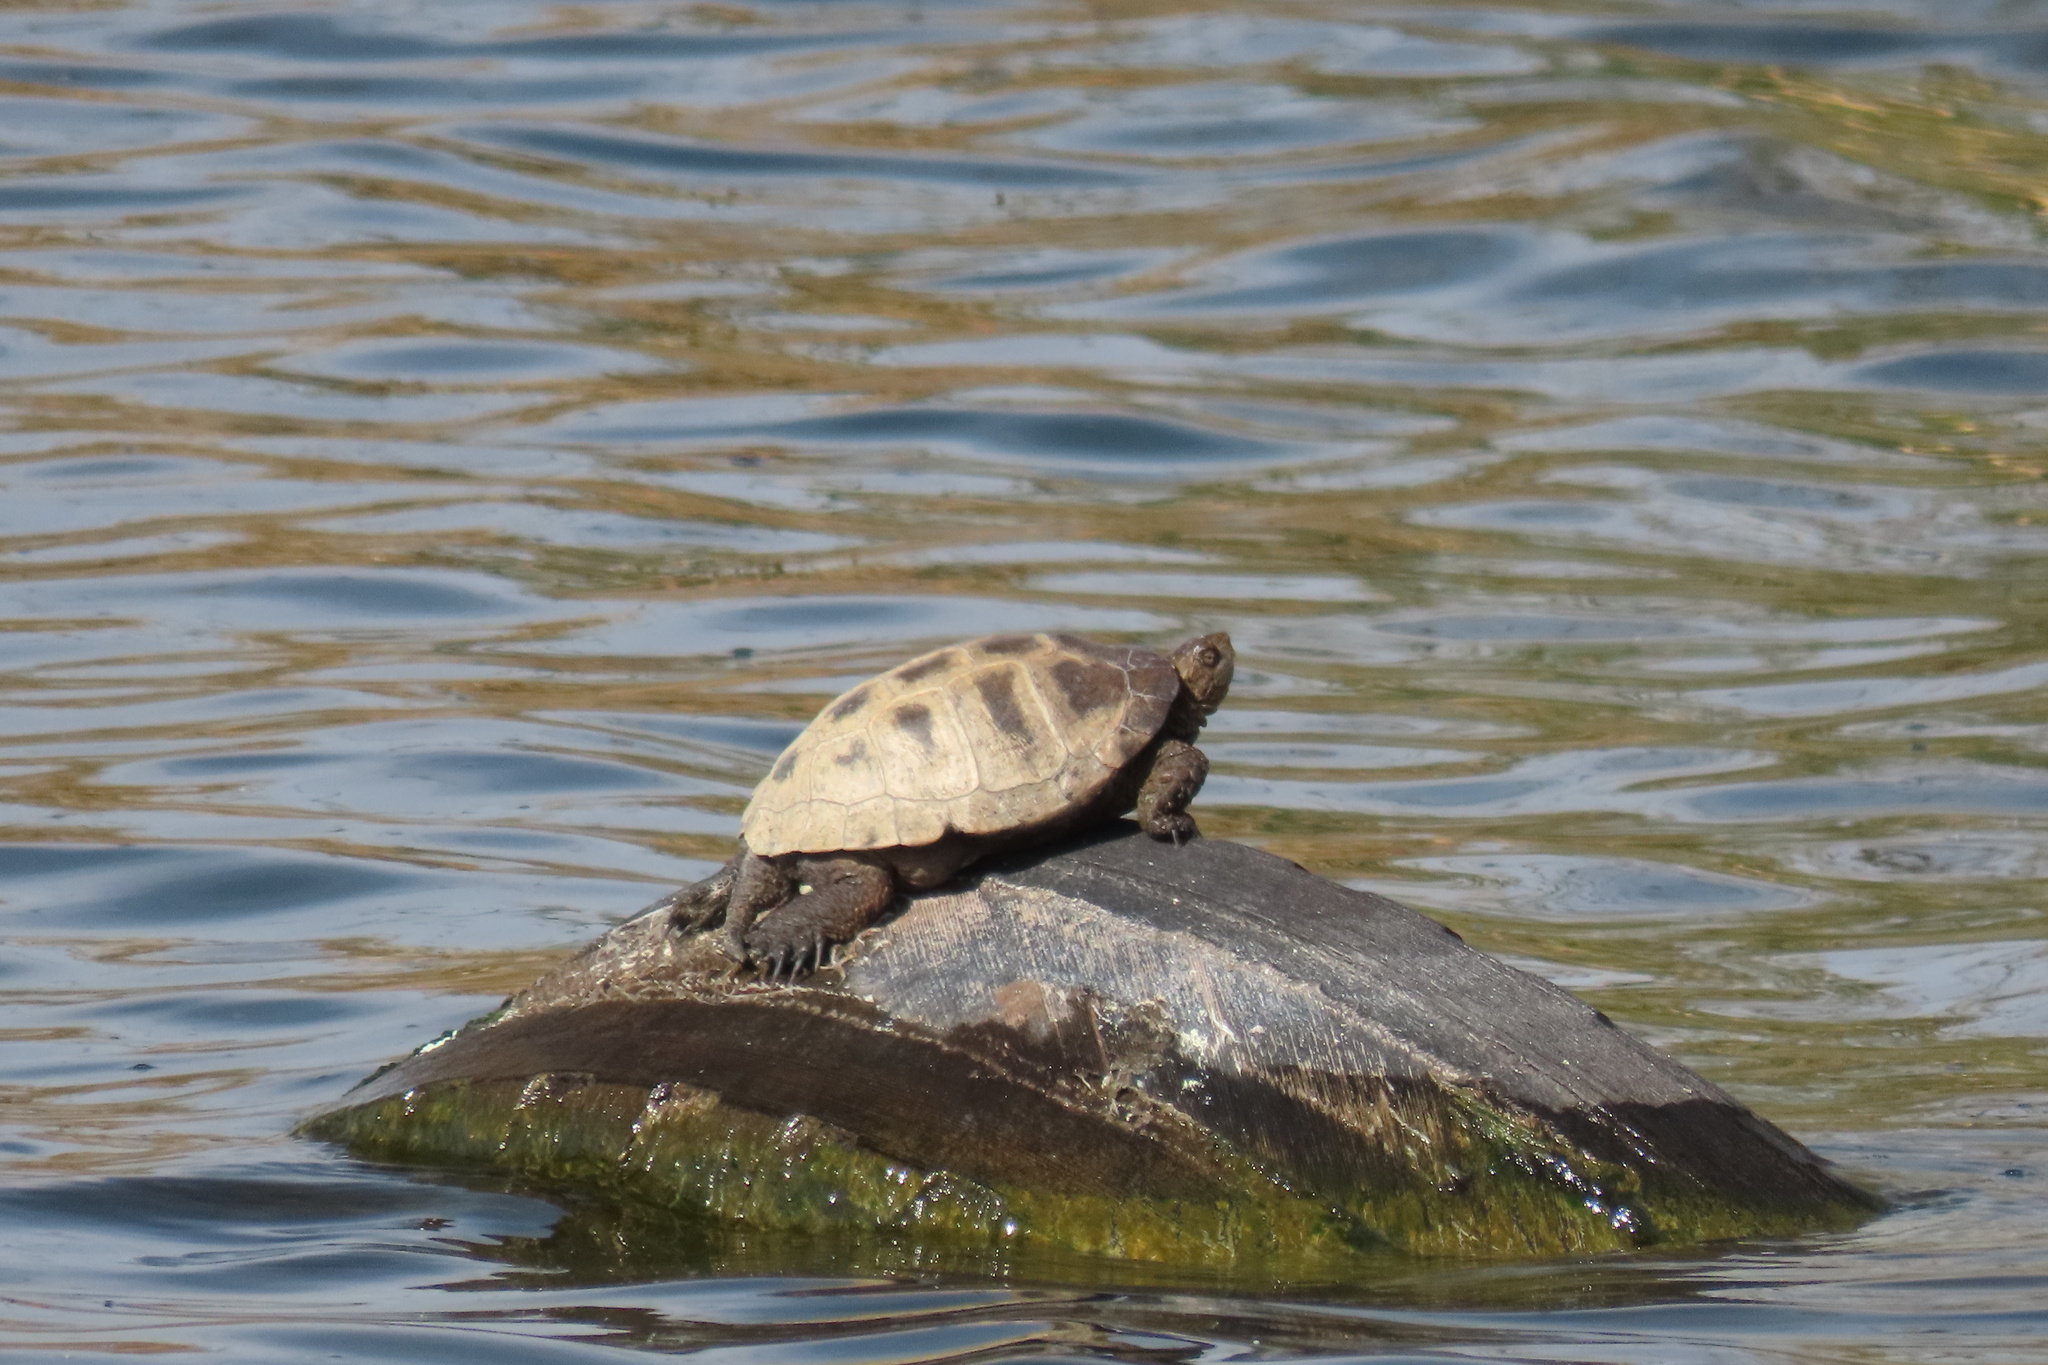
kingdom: Animalia
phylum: Chordata
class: Testudines
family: Emydidae
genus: Actinemys
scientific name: Actinemys marmorata
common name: Western pond turtle
